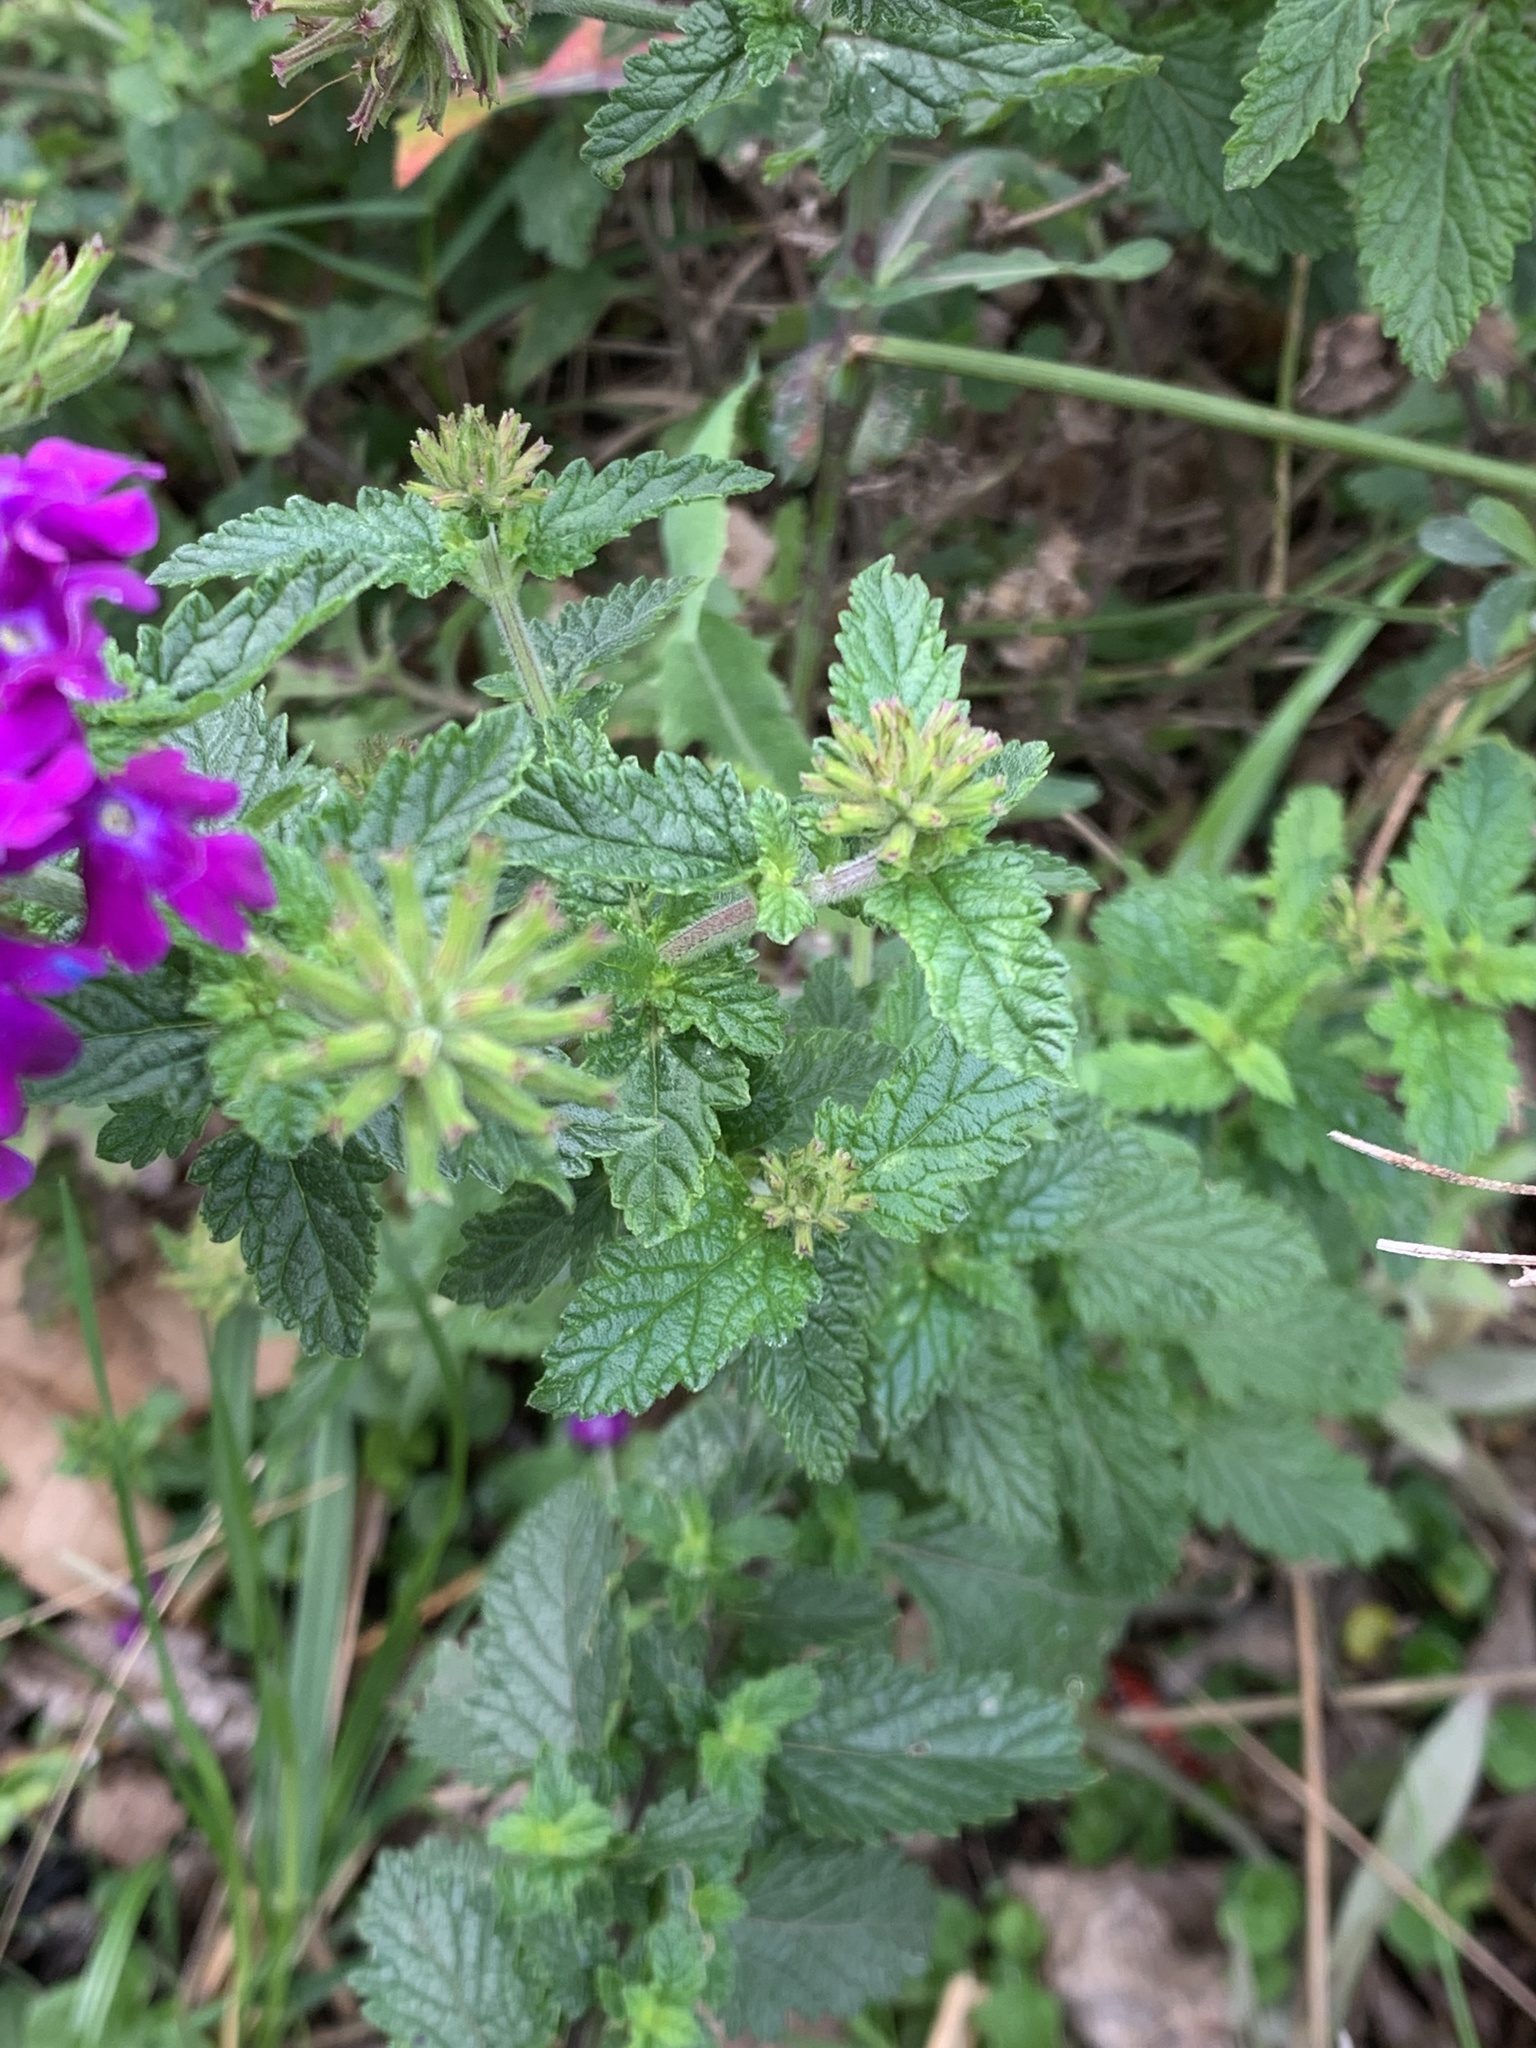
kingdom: Plantae
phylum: Tracheophyta
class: Magnoliopsida
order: Lamiales
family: Verbenaceae
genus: Verbena
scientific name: Verbena megapotamica
